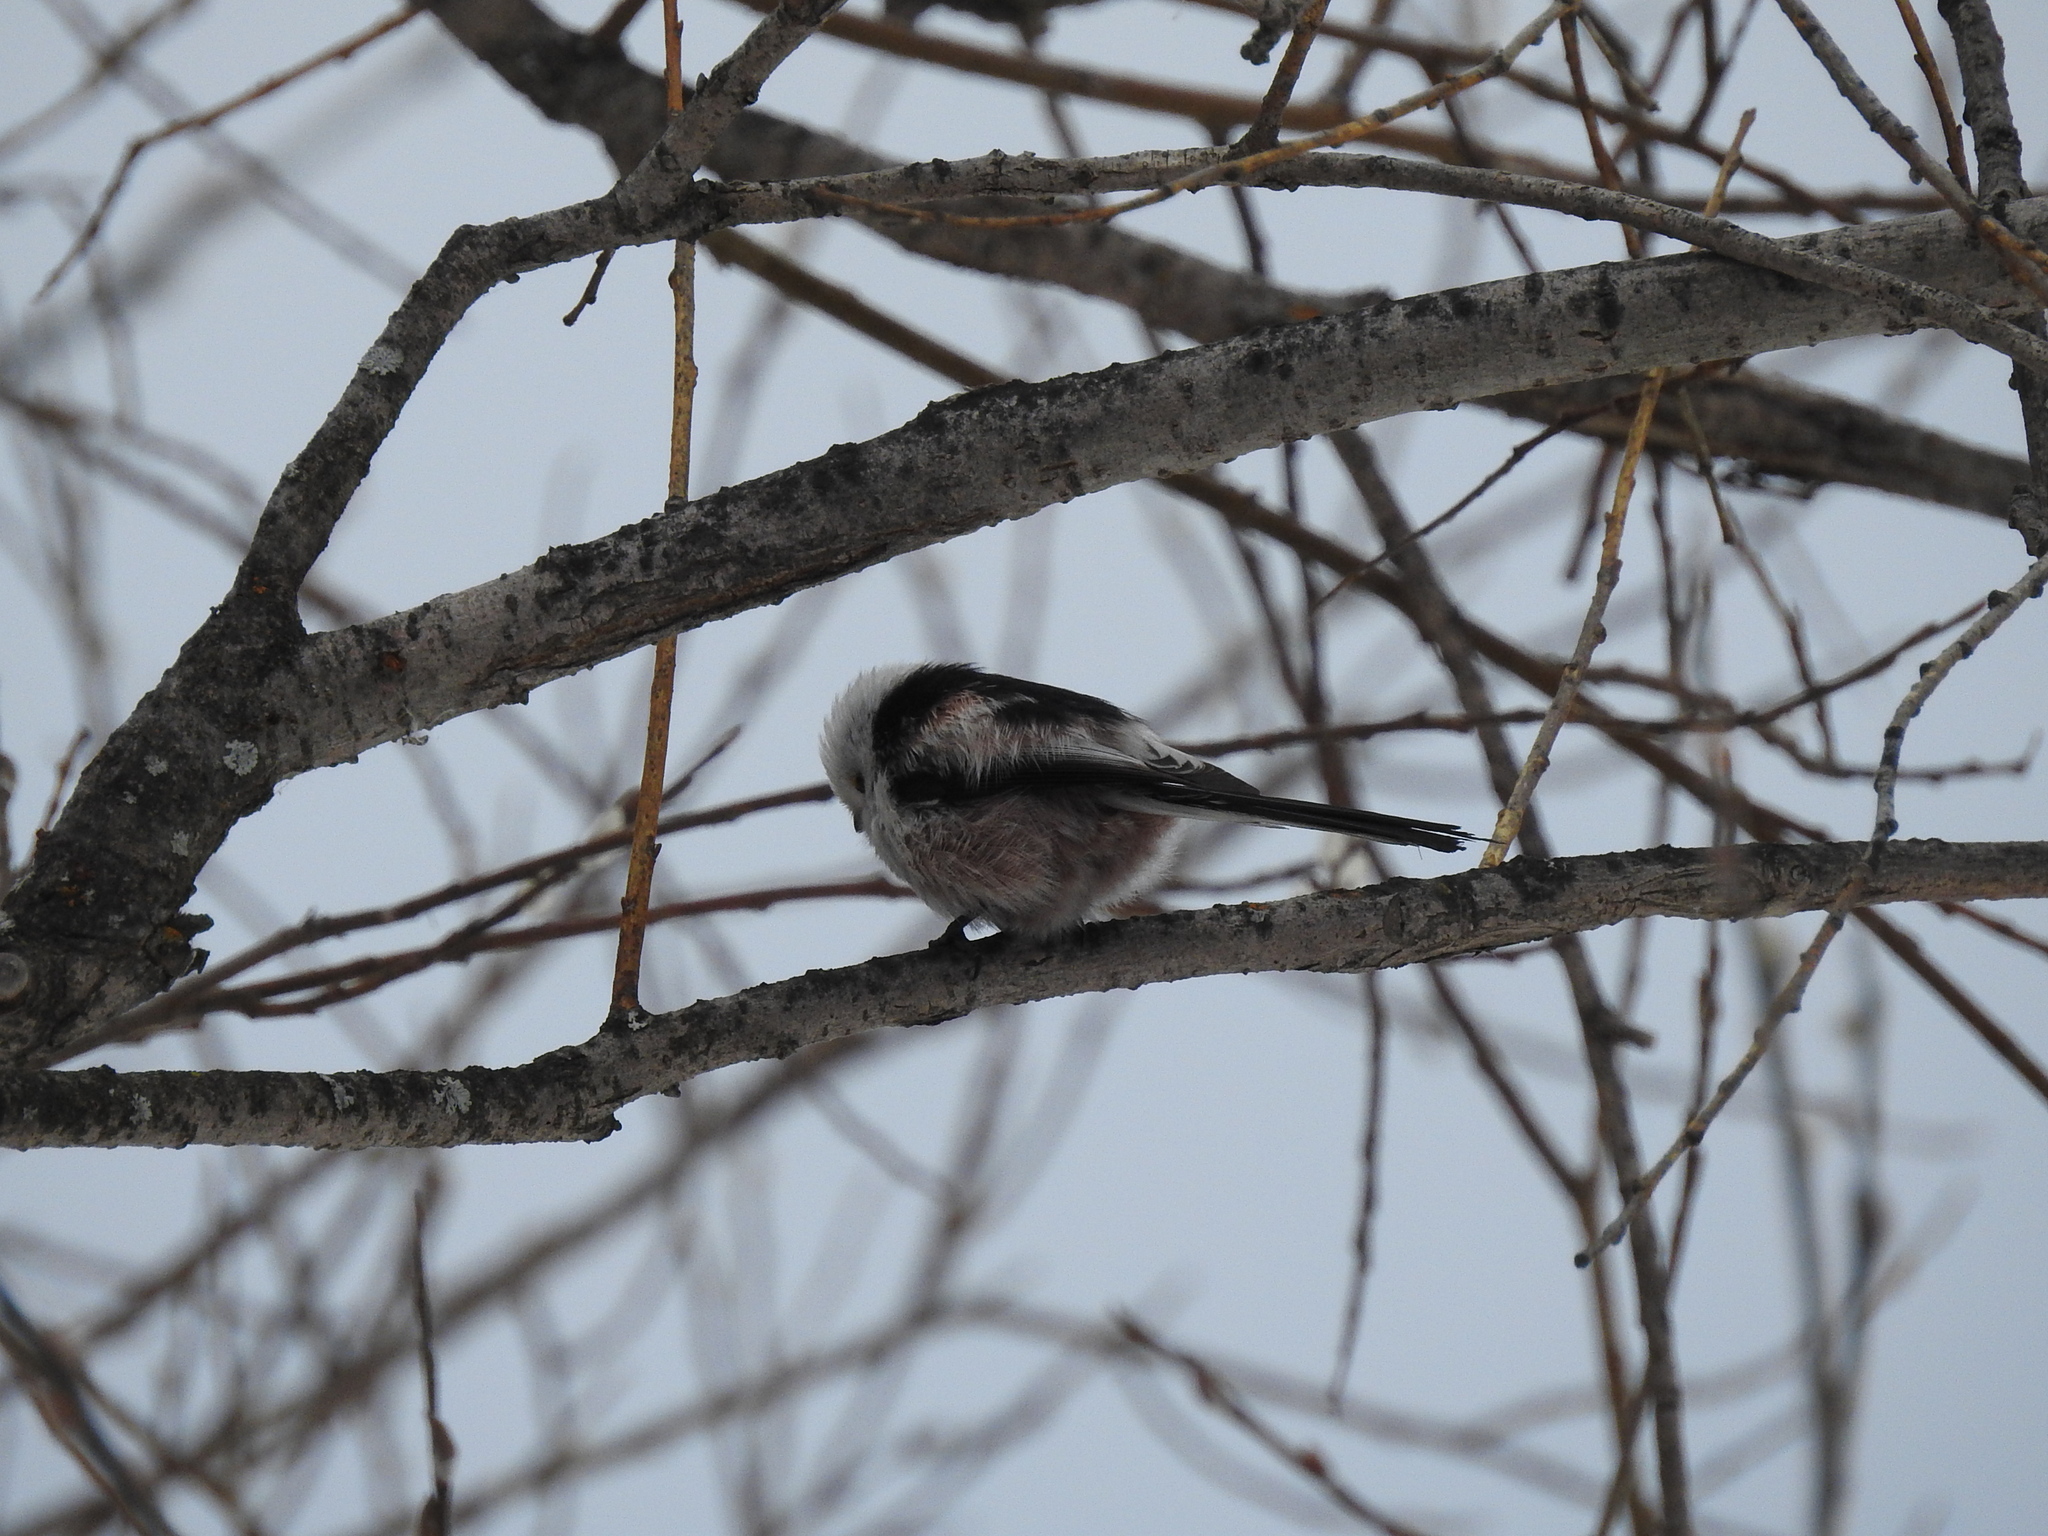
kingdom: Animalia
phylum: Chordata
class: Aves
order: Passeriformes
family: Aegithalidae
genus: Aegithalos
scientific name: Aegithalos caudatus
